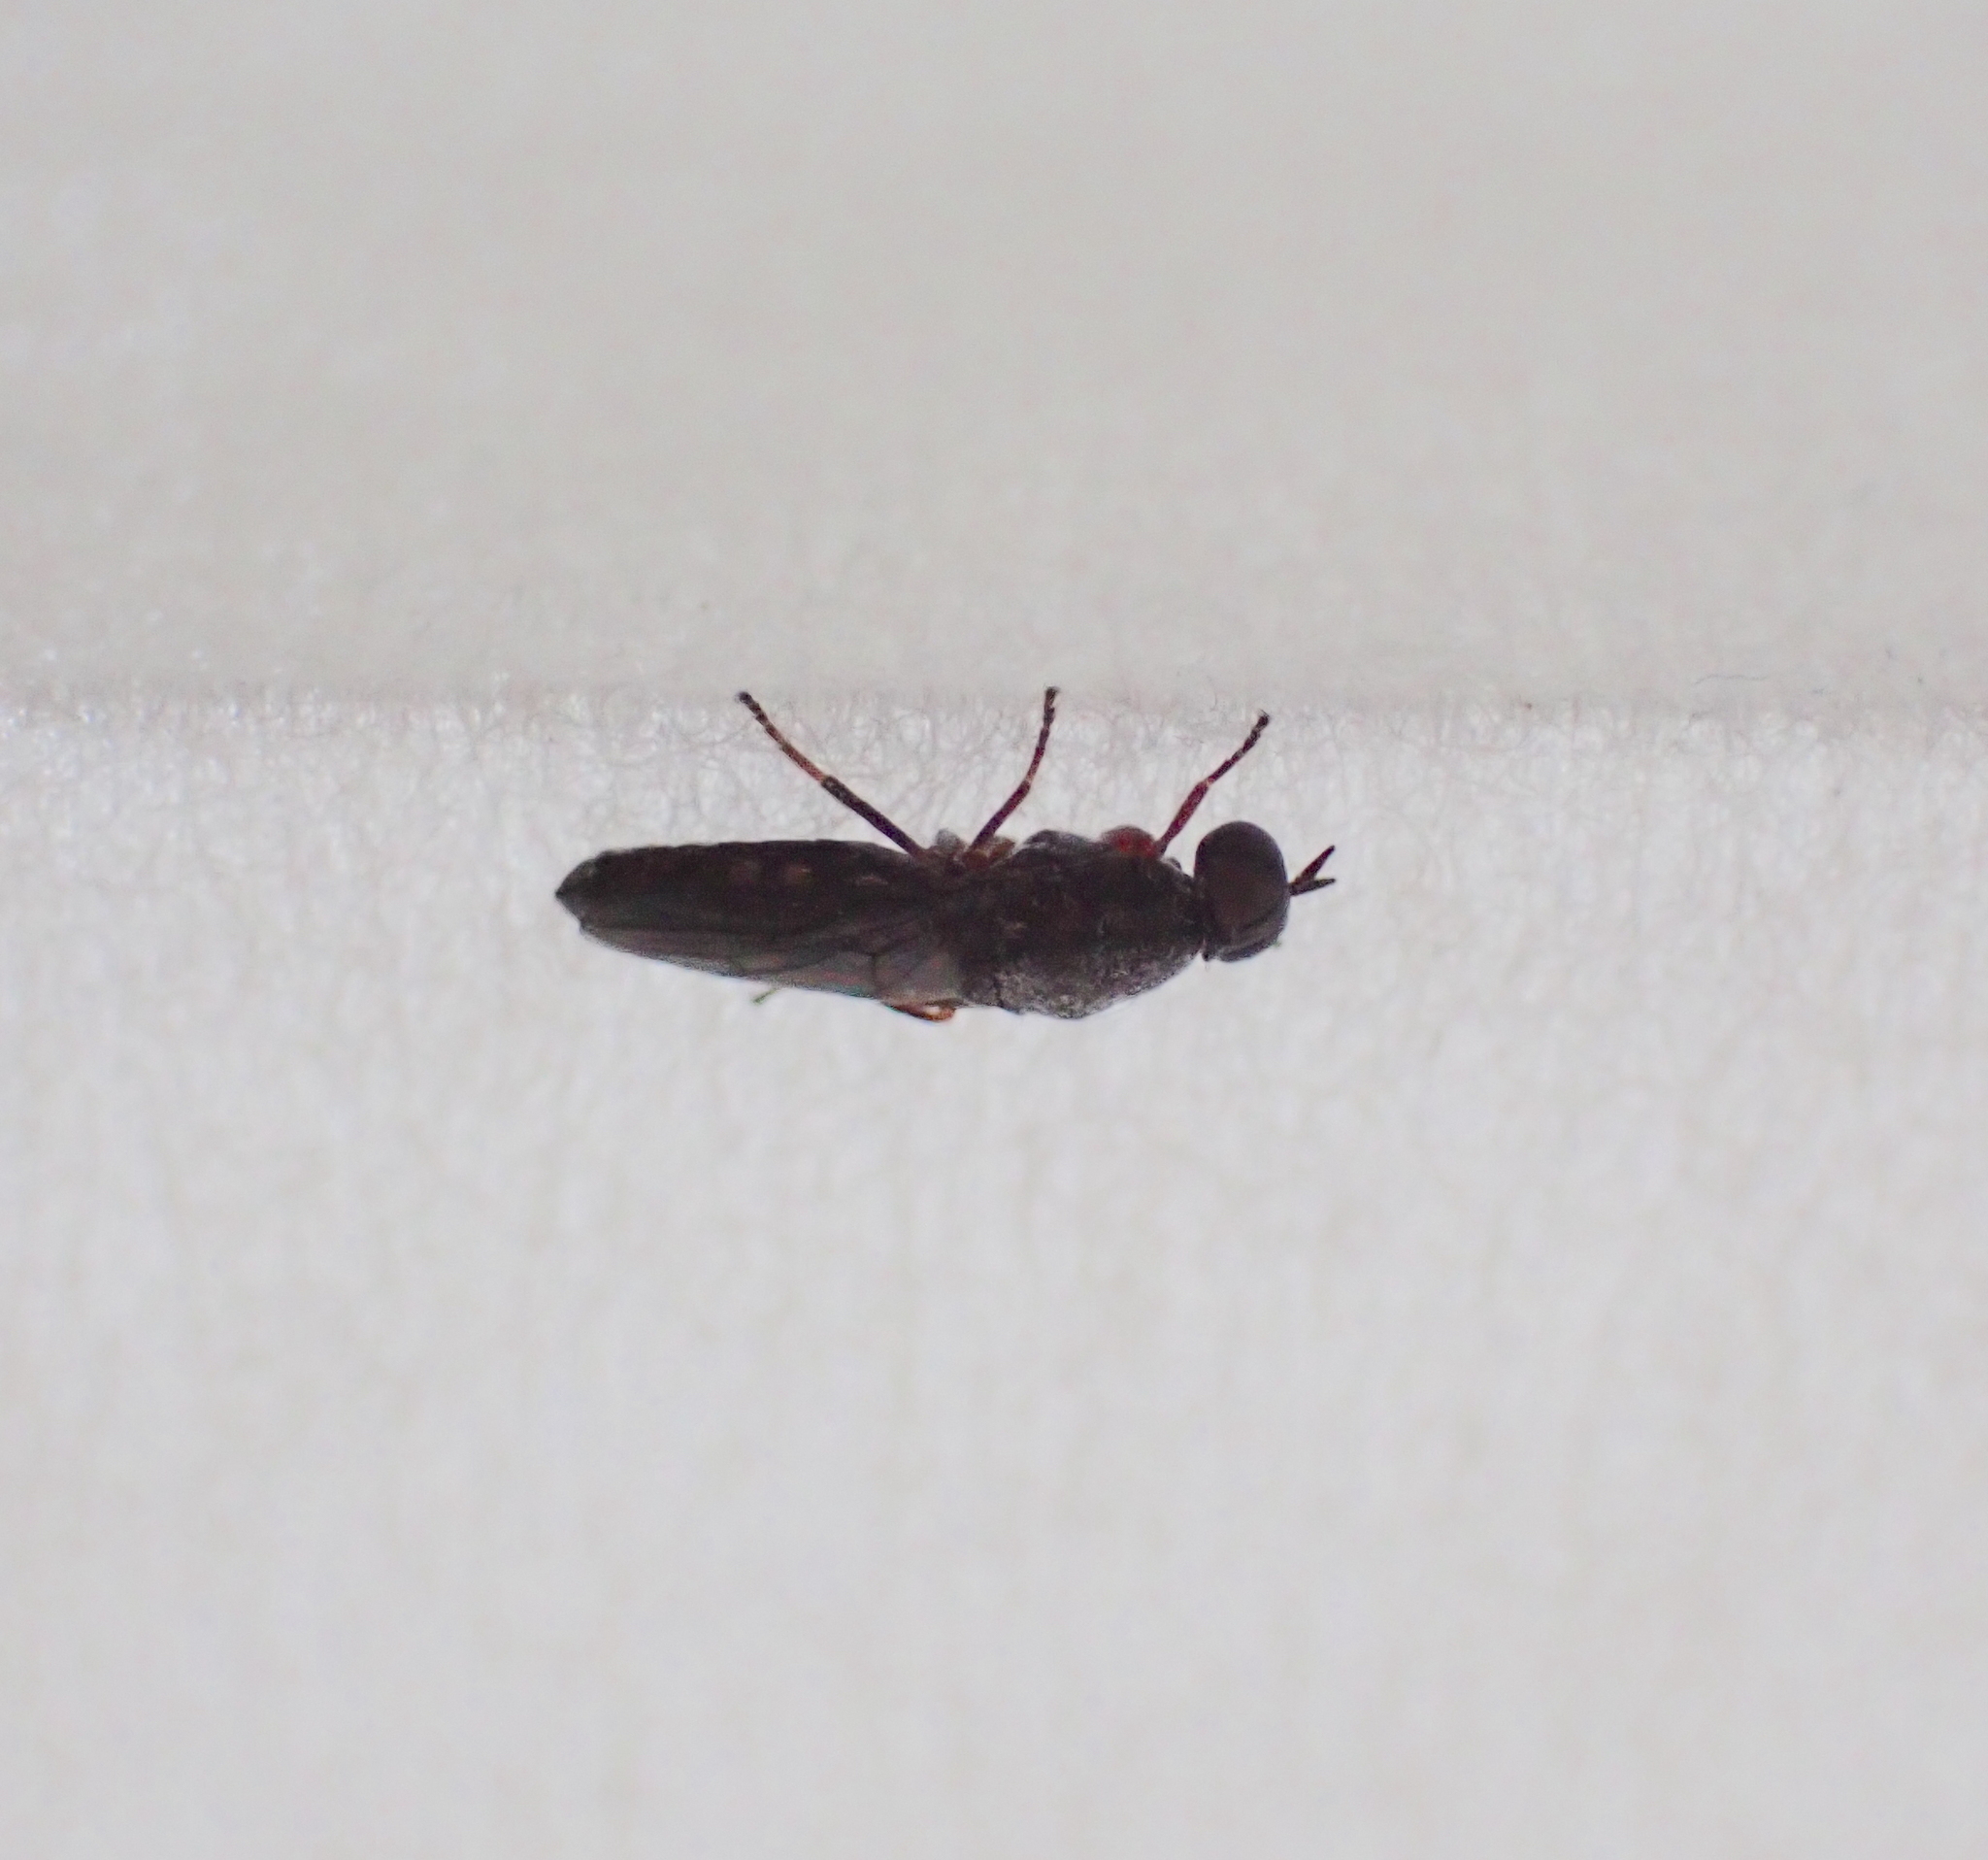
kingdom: Animalia
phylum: Arthropoda
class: Insecta
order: Diptera
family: Scenopinidae
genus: Scenopinus
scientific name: Scenopinus fenestralis
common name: House windowfly
